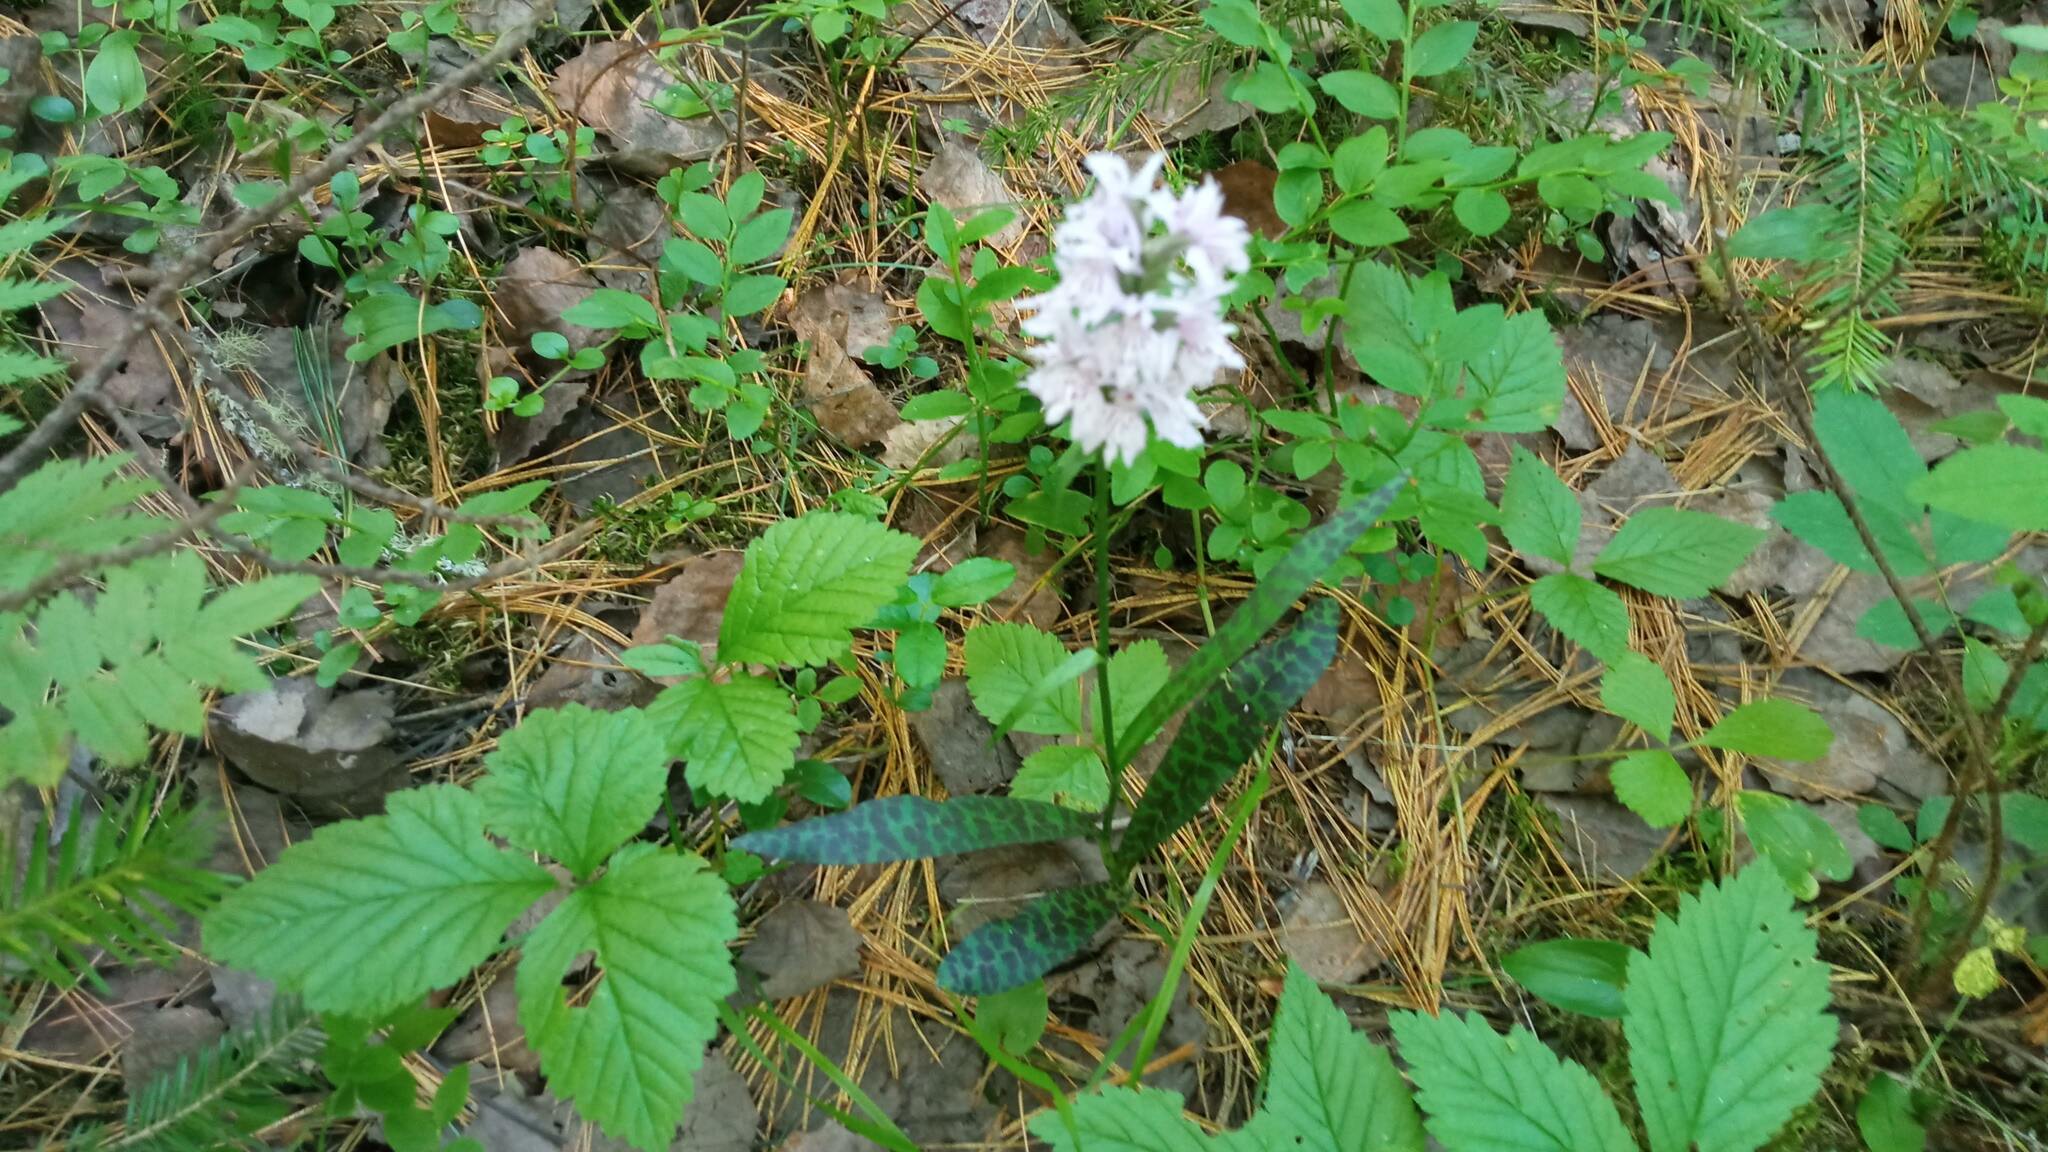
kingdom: Plantae
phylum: Tracheophyta
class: Liliopsida
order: Asparagales
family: Orchidaceae
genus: Dactylorhiza
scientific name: Dactylorhiza maculata
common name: Heath spotted-orchid
